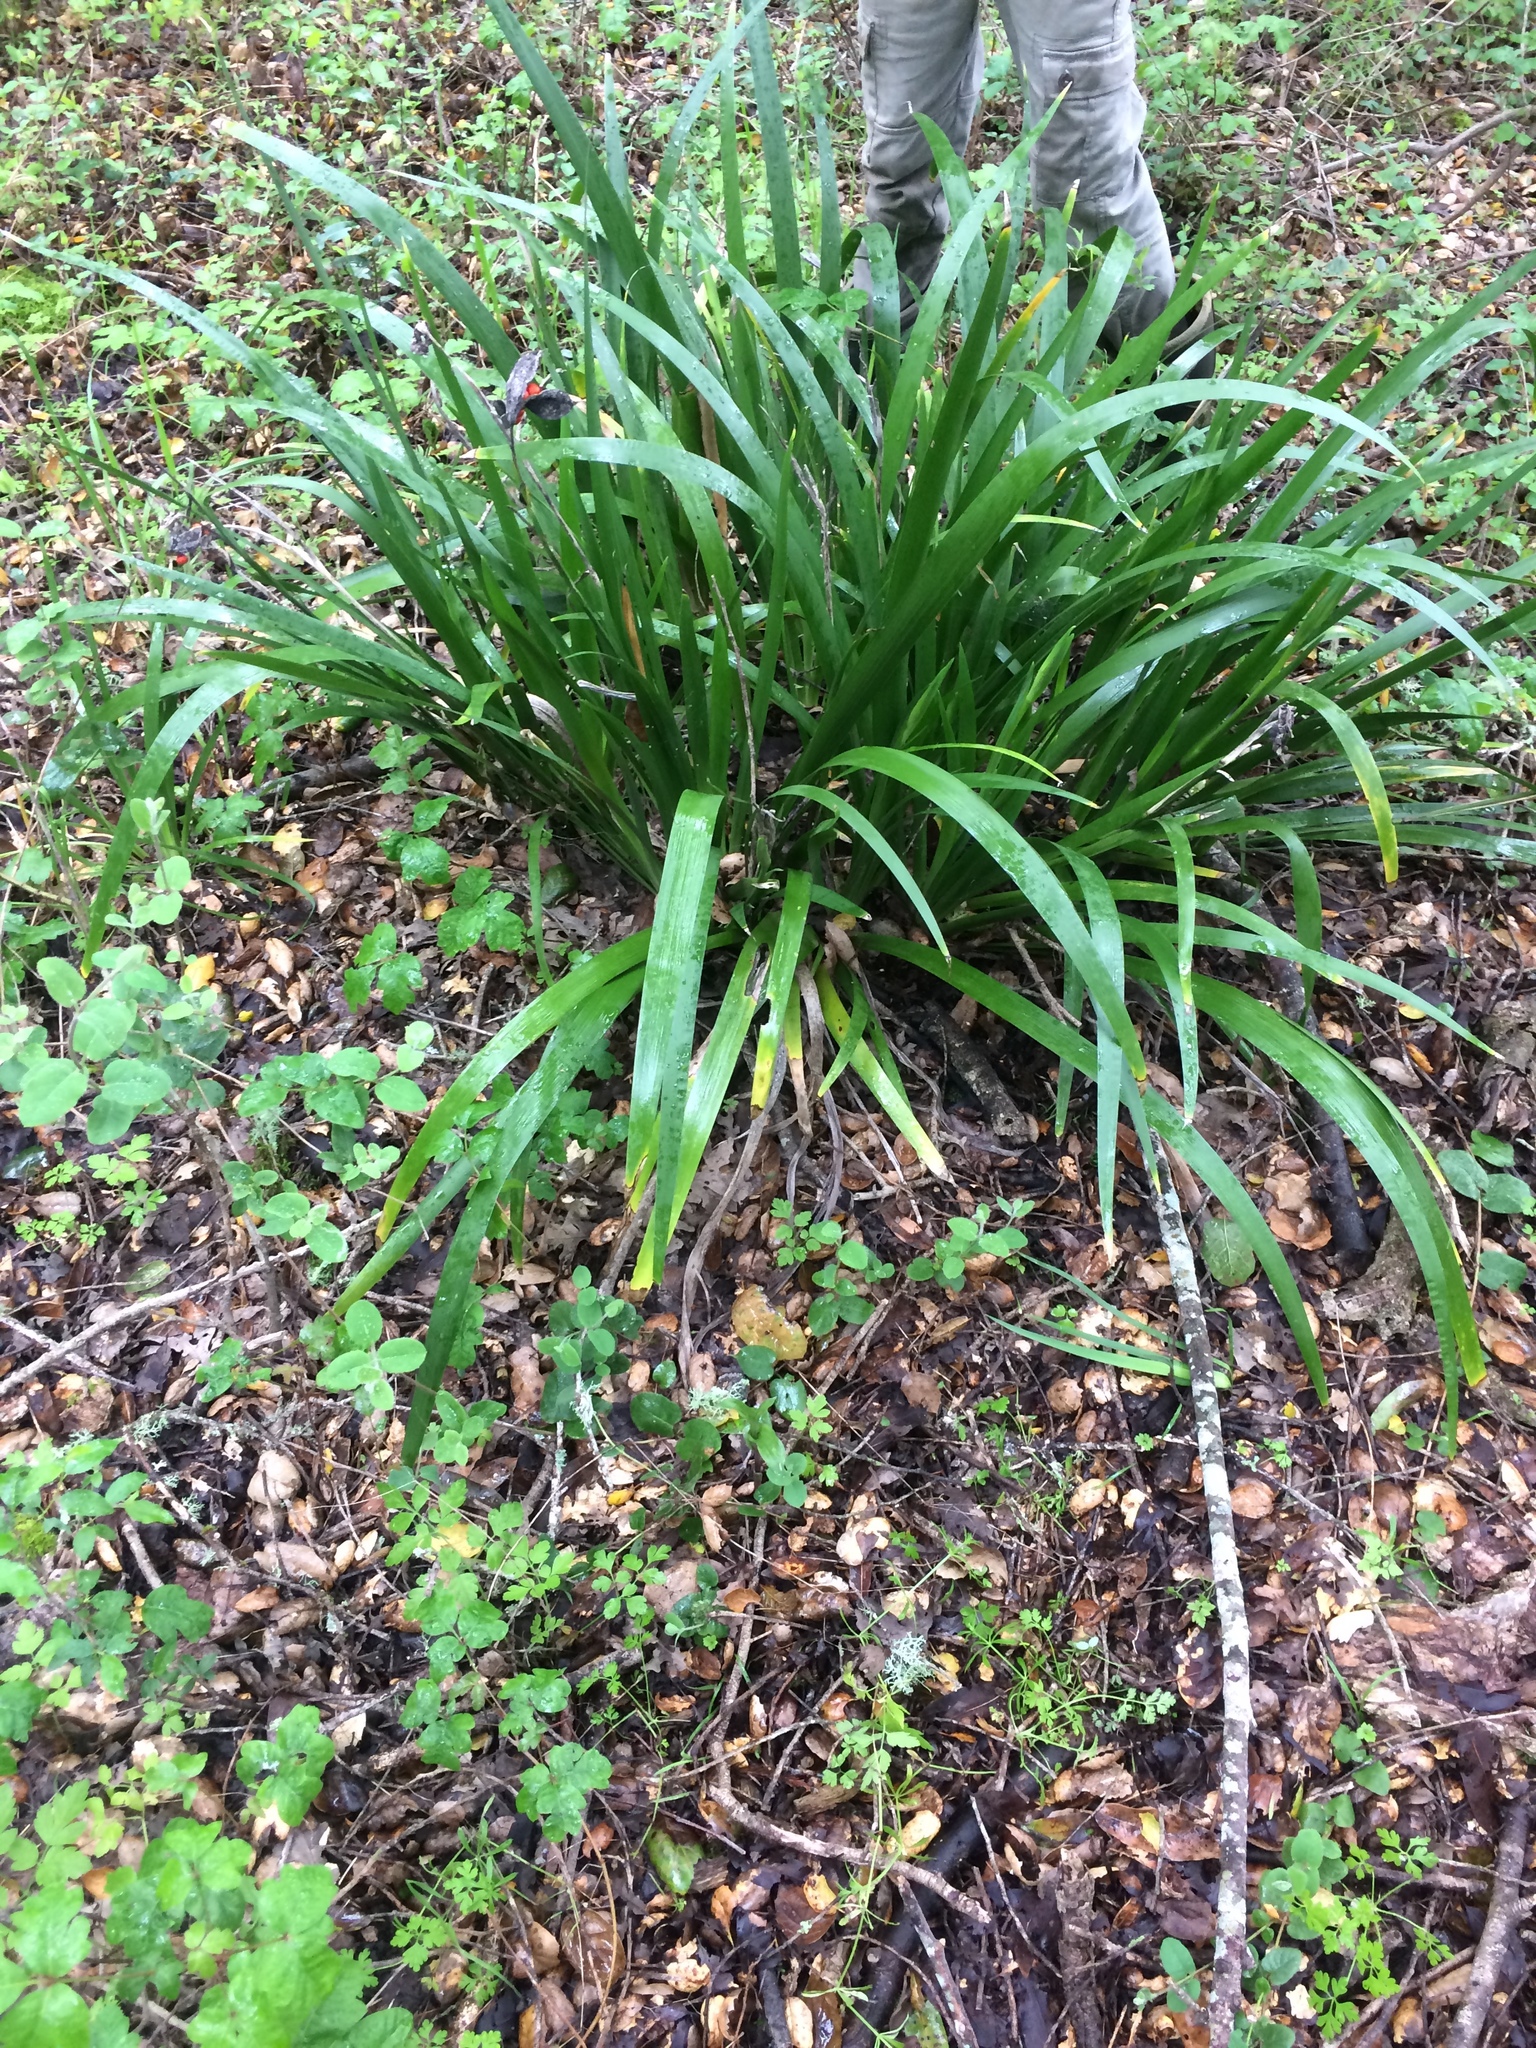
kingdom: Plantae
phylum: Tracheophyta
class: Liliopsida
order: Asparagales
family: Iridaceae
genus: Iris
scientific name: Iris foetidissima
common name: Stinking iris
